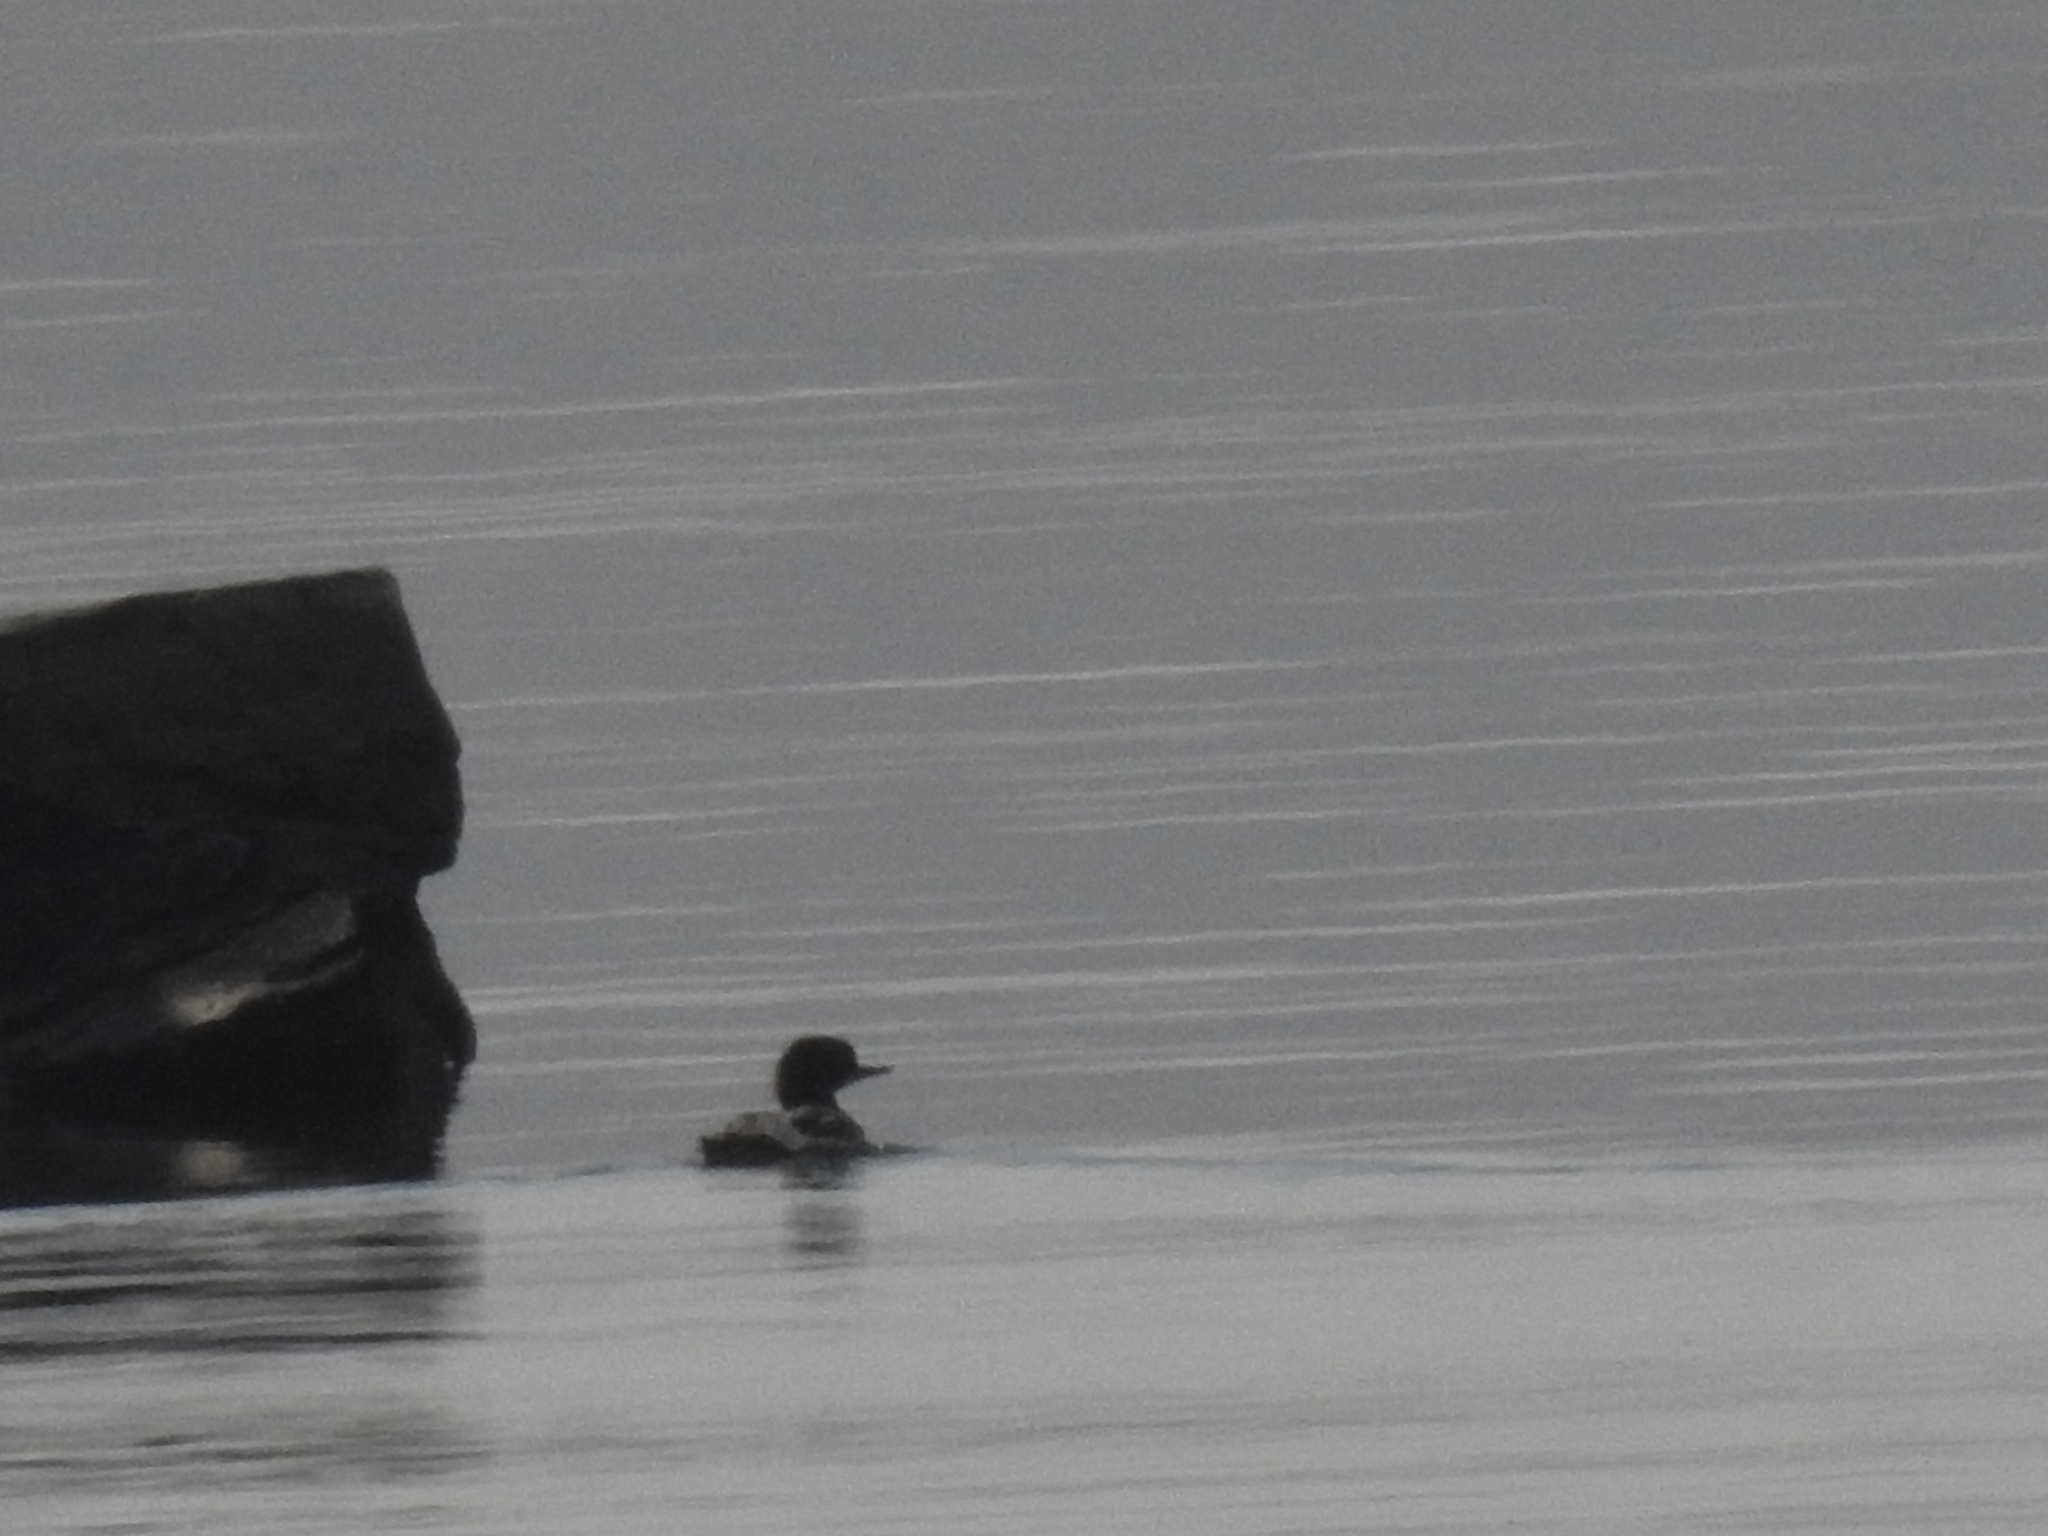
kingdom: Animalia
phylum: Chordata
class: Aves
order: Anseriformes
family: Anatidae
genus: Mergus
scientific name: Mergus merganser
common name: Common merganser
